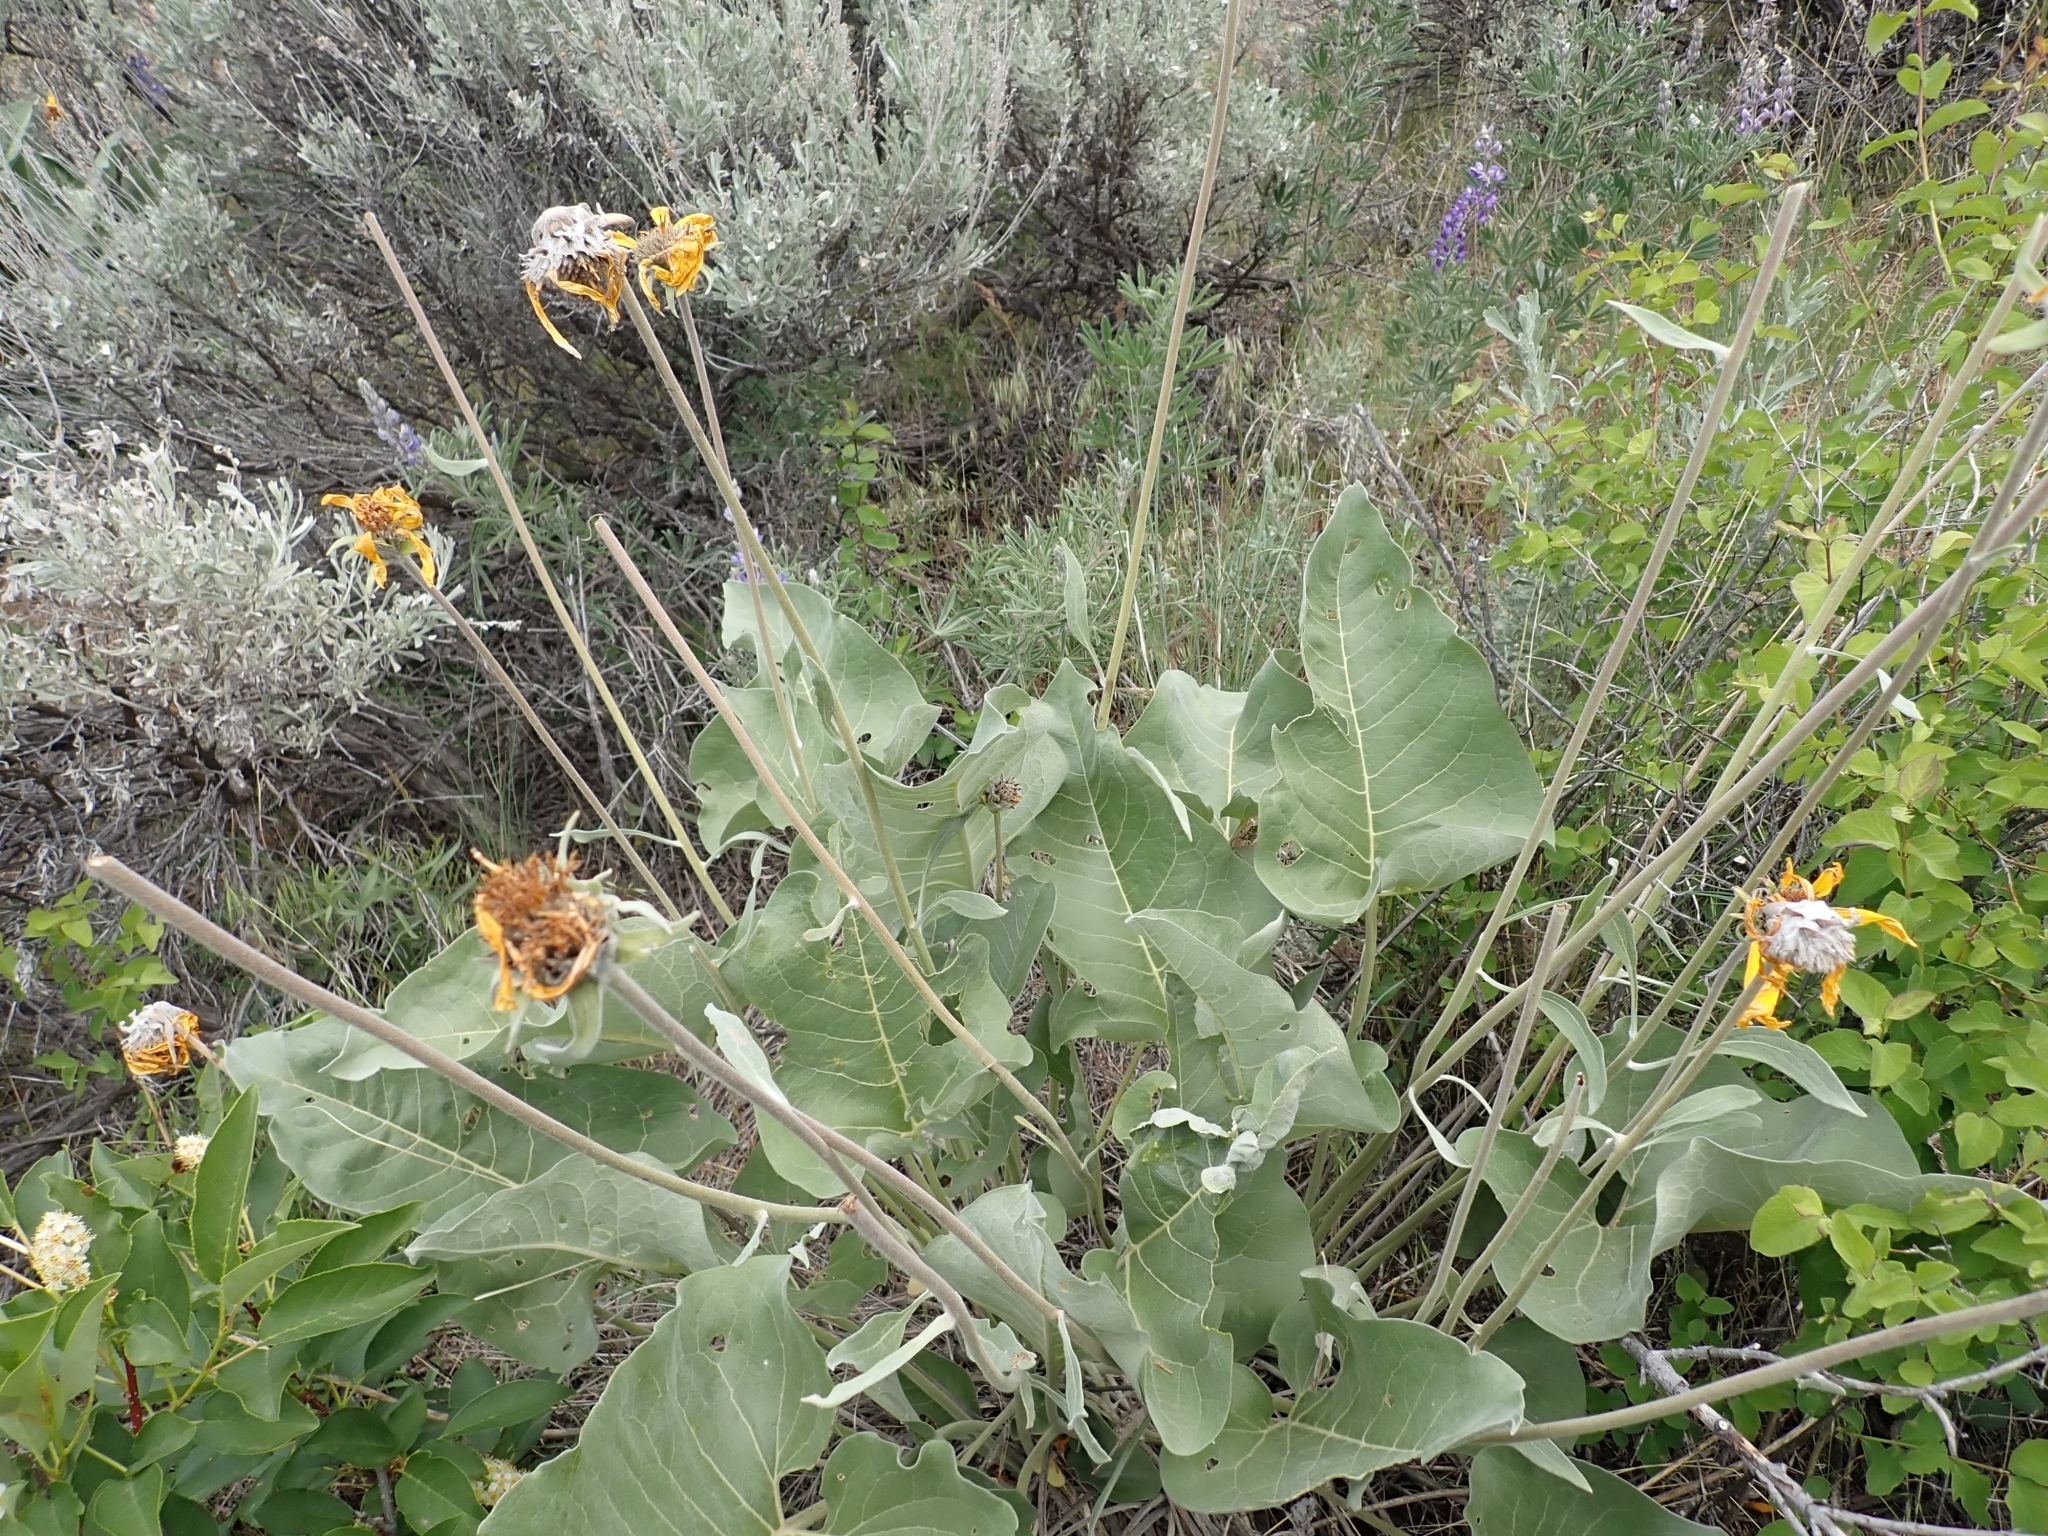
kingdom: Plantae
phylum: Tracheophyta
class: Magnoliopsida
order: Asterales
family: Asteraceae
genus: Wyethia
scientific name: Wyethia sagittata
